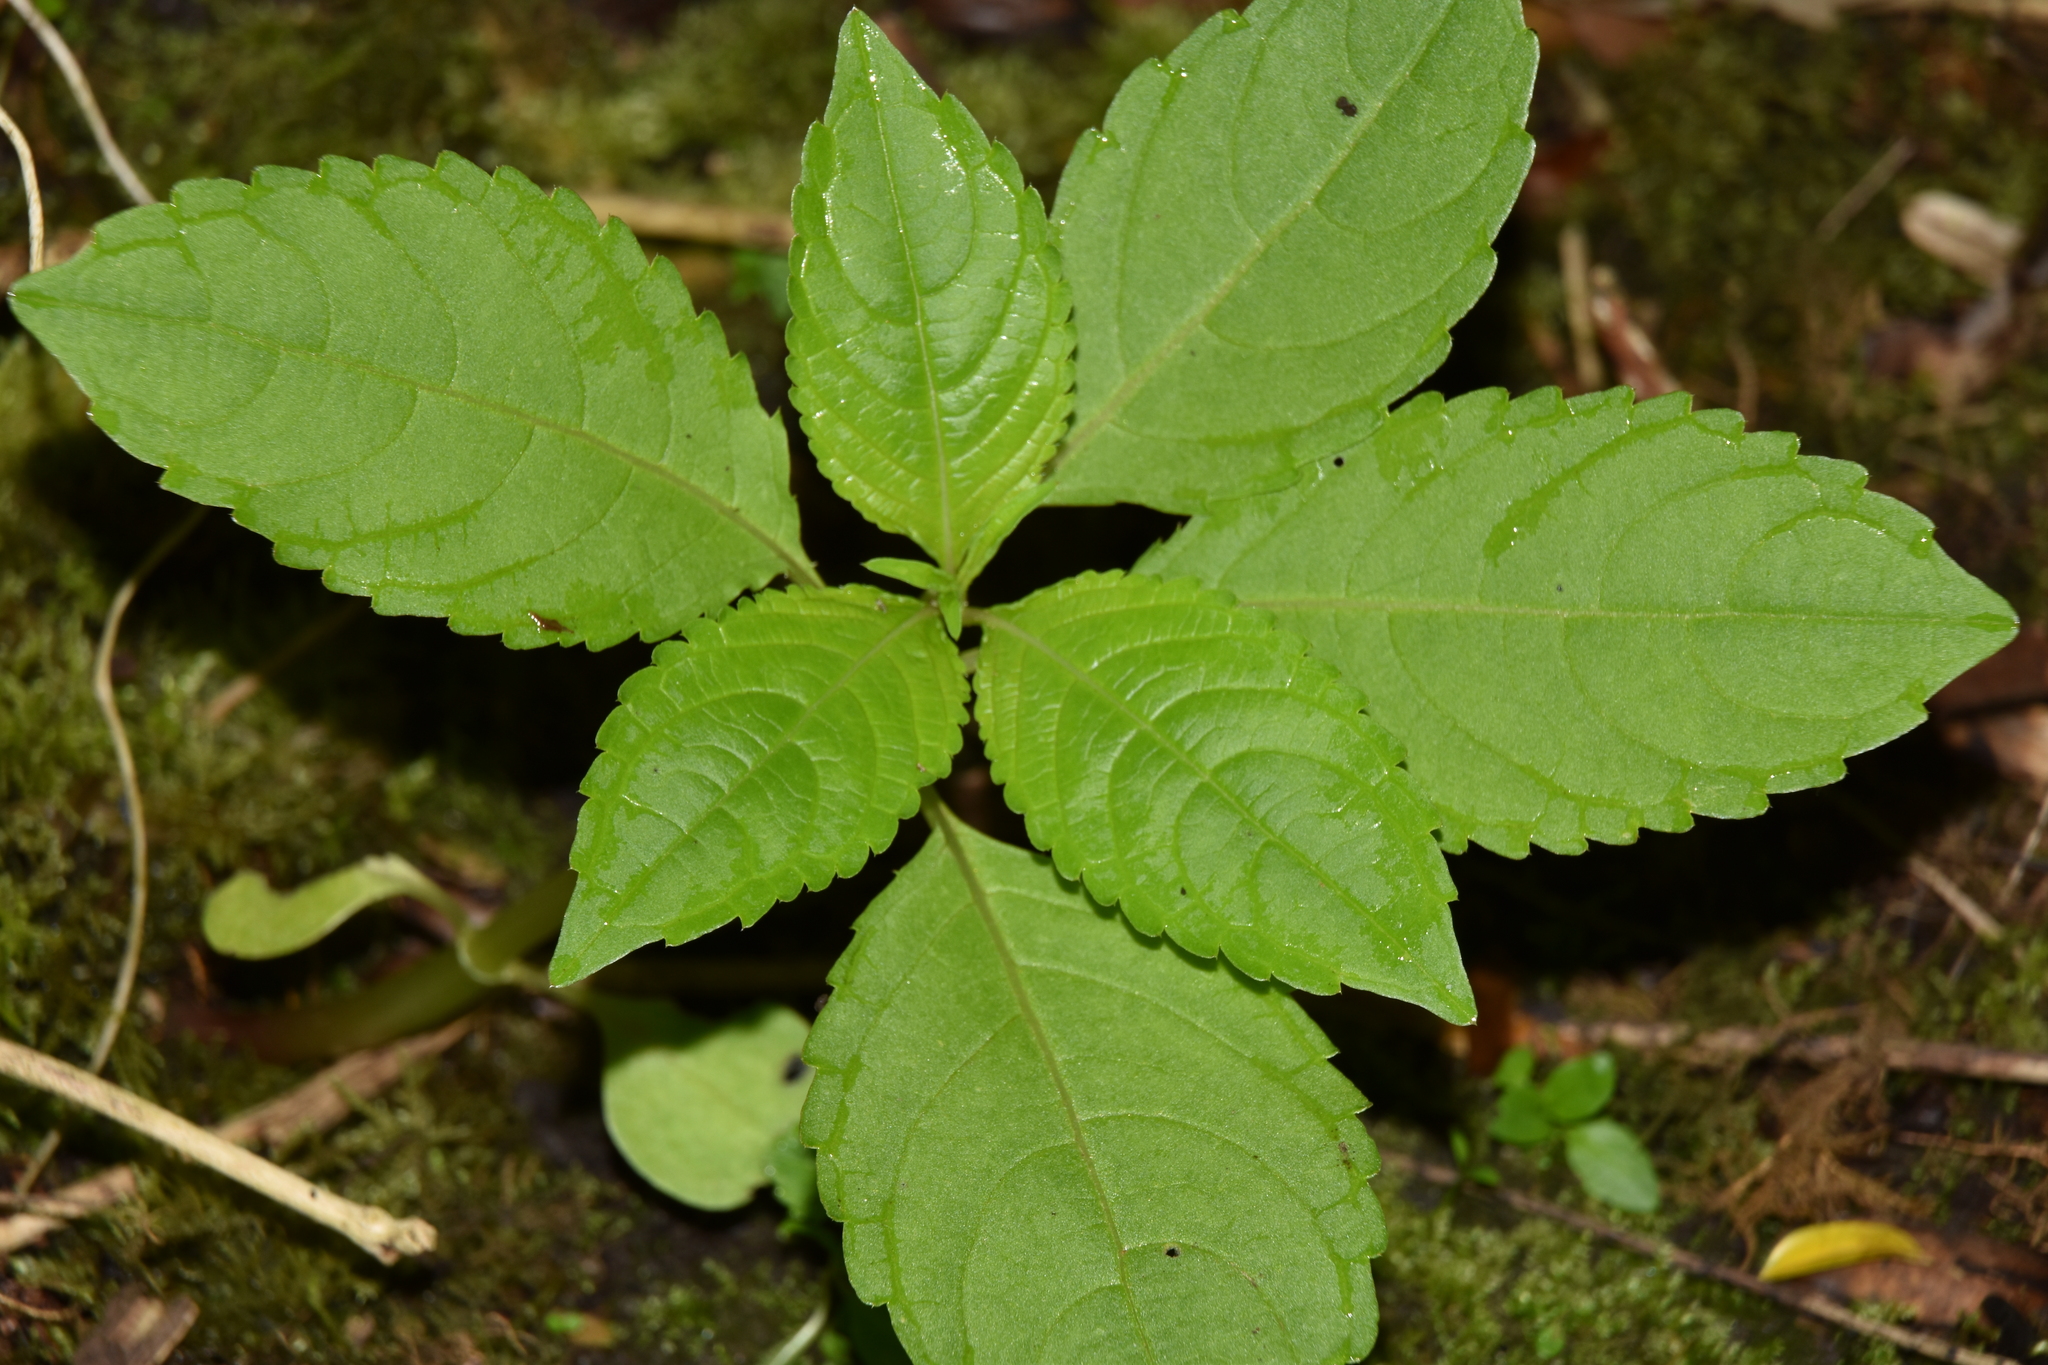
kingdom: Plantae
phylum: Tracheophyta
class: Magnoliopsida
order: Ericales
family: Balsaminaceae
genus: Impatiens
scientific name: Impatiens glandulifera
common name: Himalayan balsam
